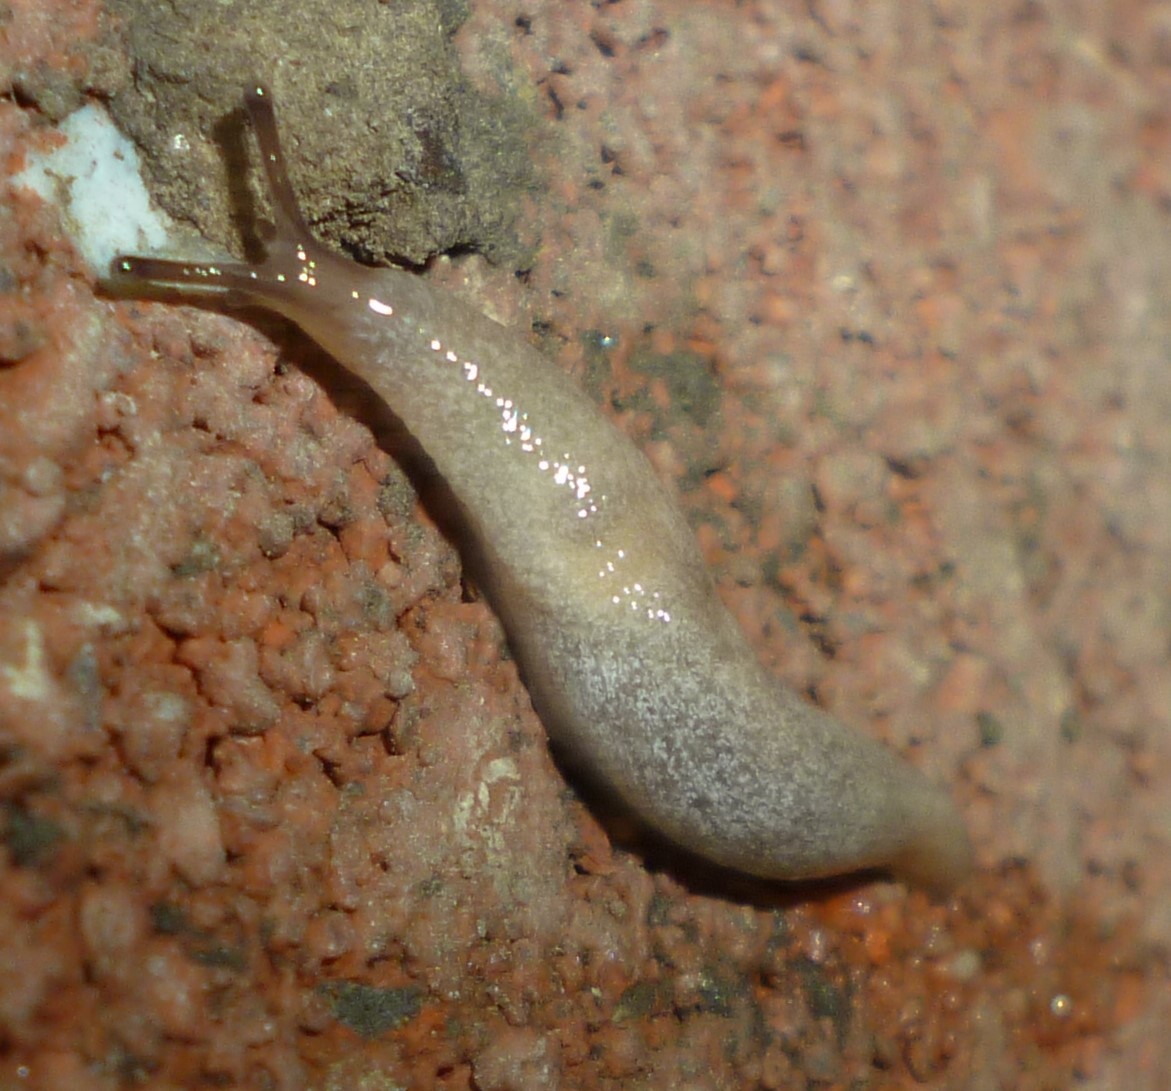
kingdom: Animalia
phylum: Mollusca
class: Gastropoda
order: Stylommatophora
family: Agriolimacidae
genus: Deroceras
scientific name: Deroceras reticulatum
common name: Gray field slug
